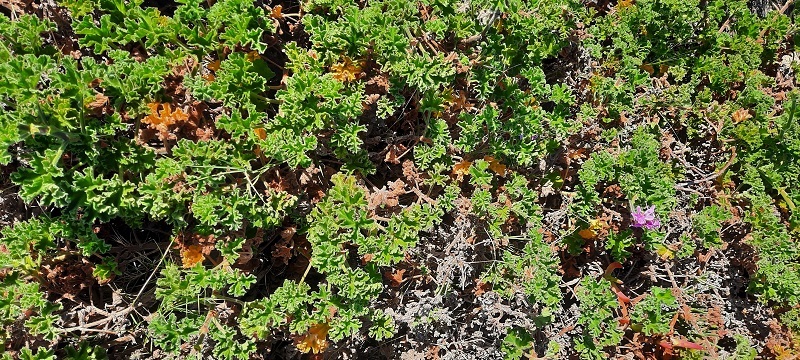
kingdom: Plantae
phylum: Tracheophyta
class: Magnoliopsida
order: Geraniales
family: Geraniaceae
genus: Pelargonium
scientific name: Pelargonium capitatum
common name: Rose scented geranium
